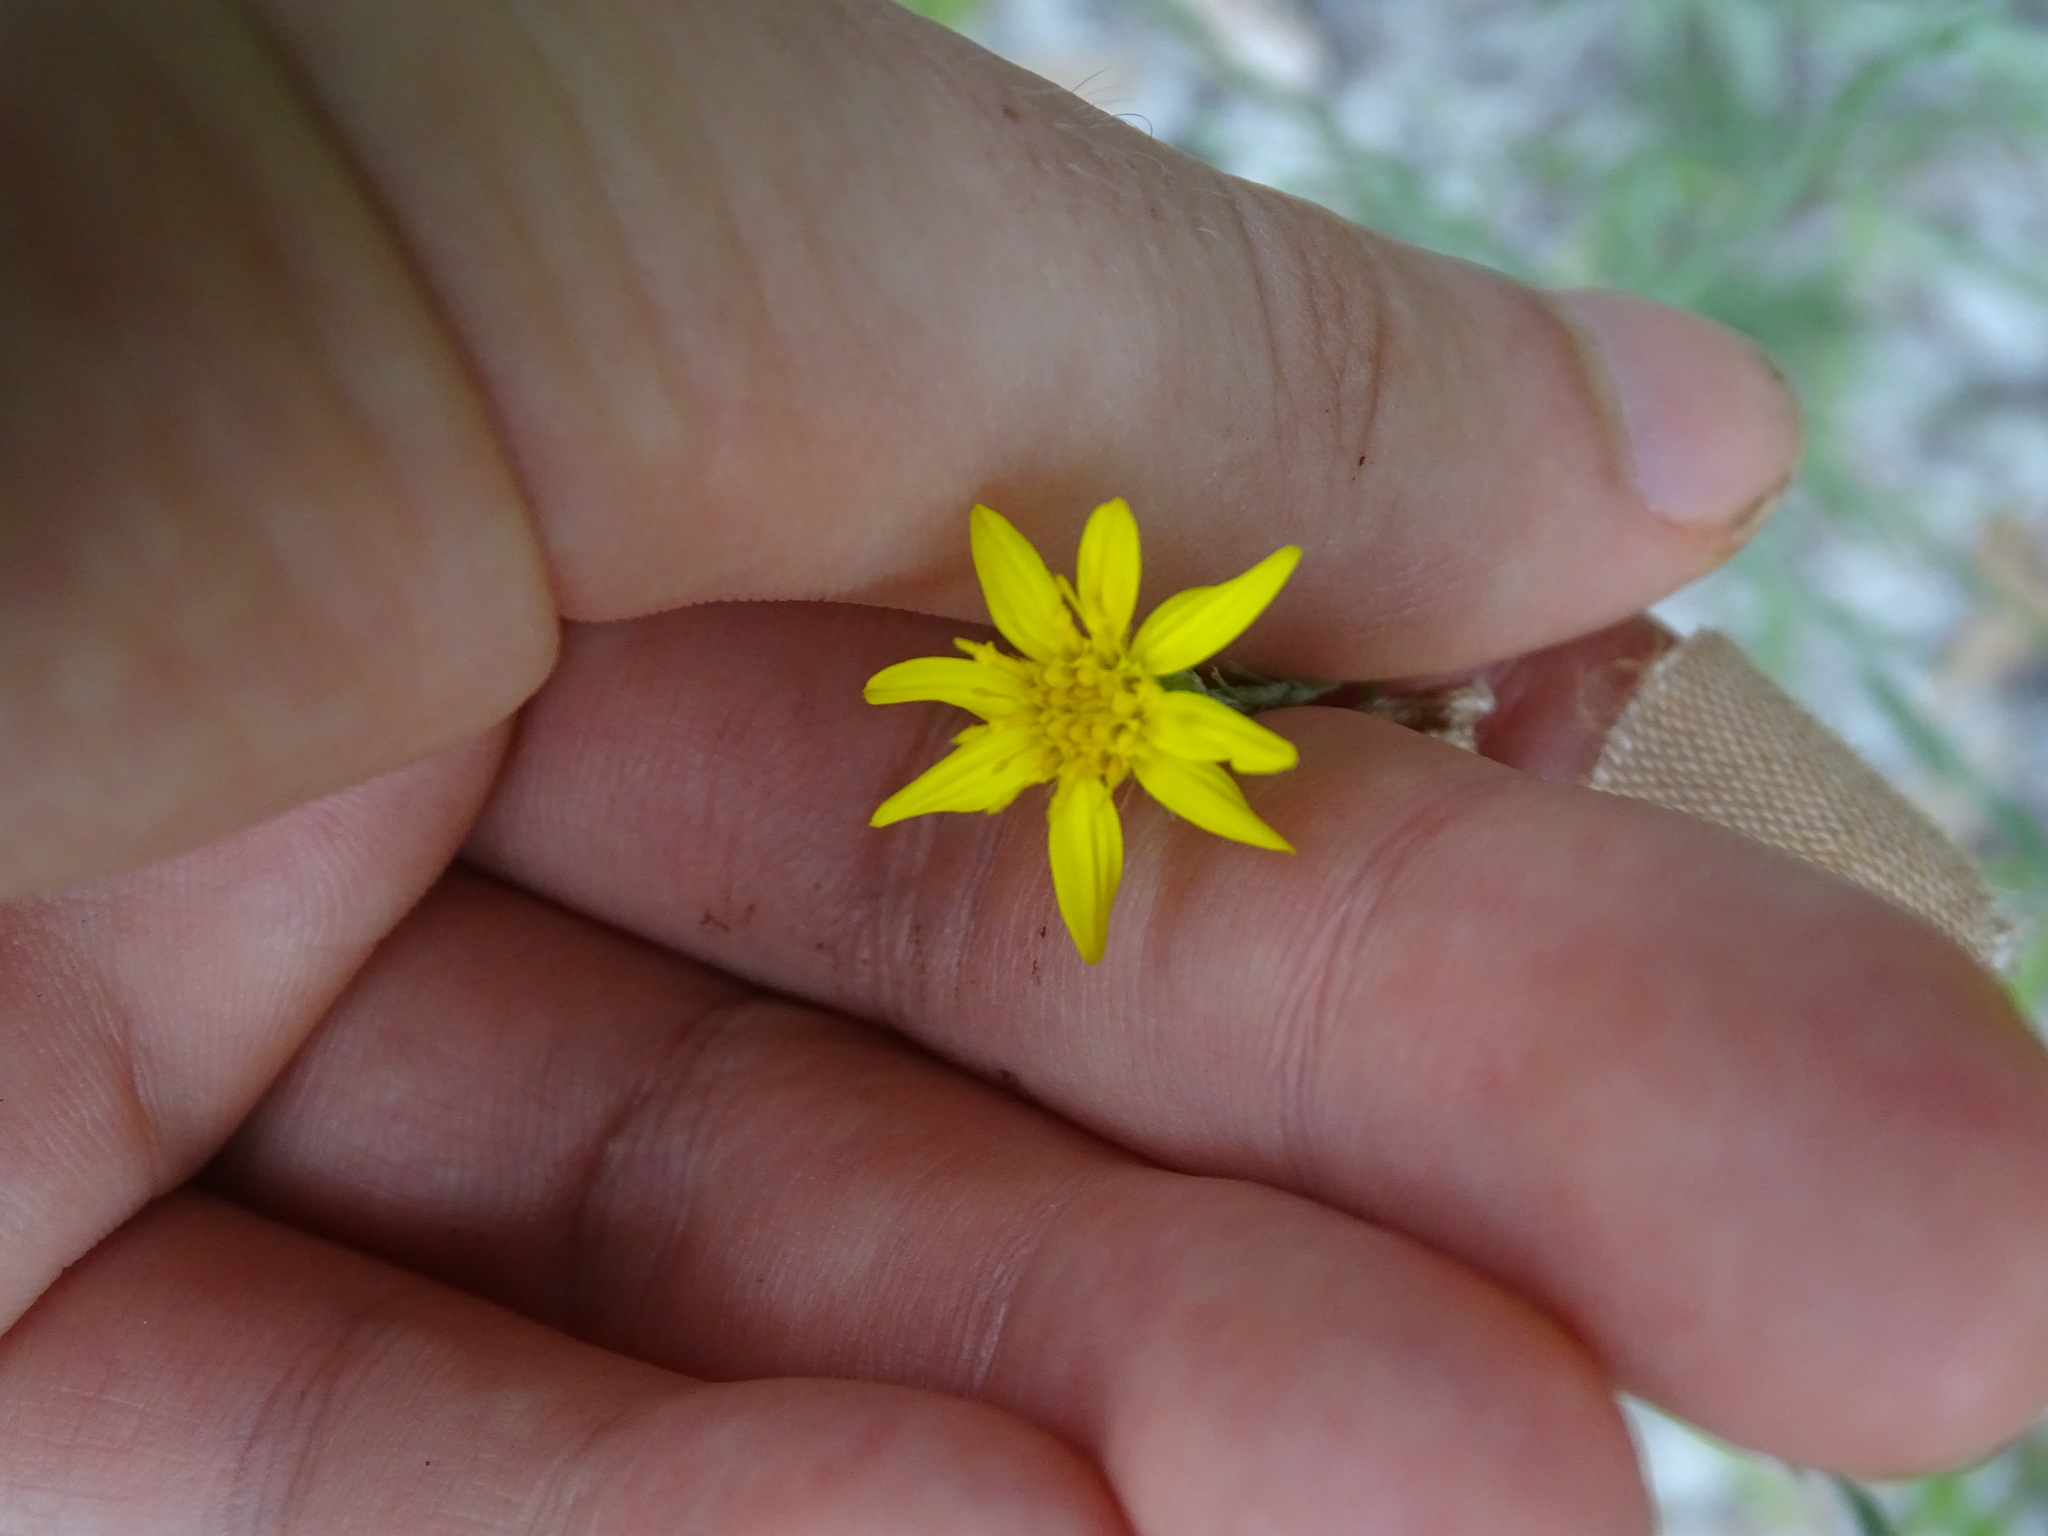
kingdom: Plantae
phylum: Tracheophyta
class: Magnoliopsida
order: Asterales
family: Asteraceae
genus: Pityopsis
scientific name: Pityopsis graminifolia
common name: Grass-leaf golden-aster
